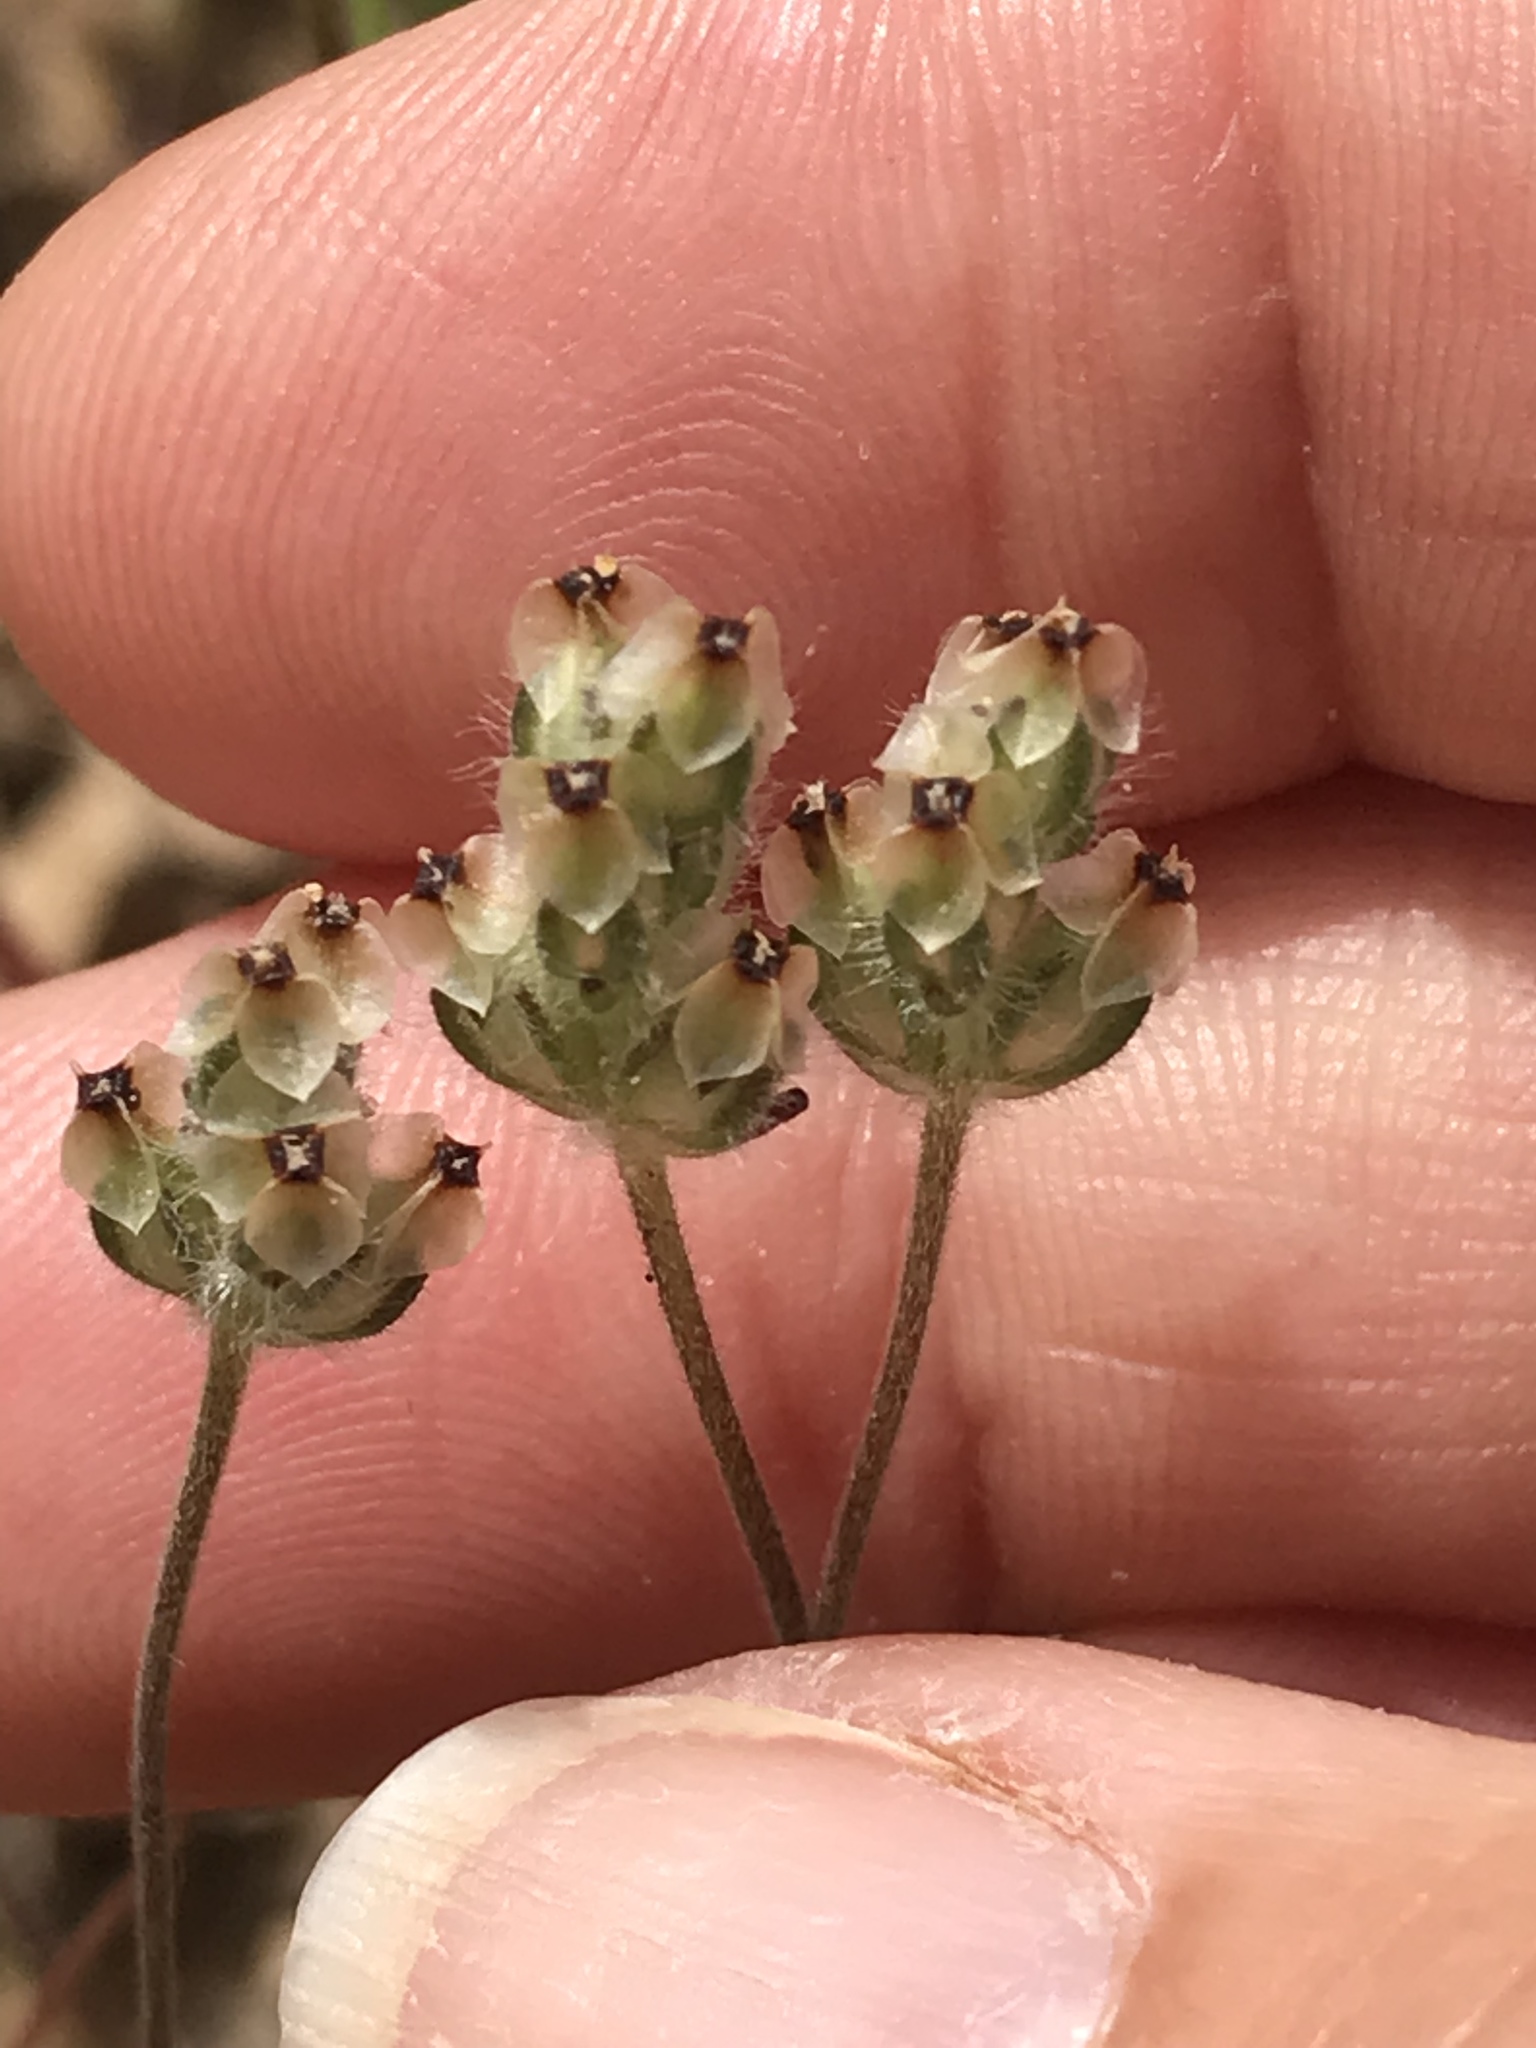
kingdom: Plantae
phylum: Tracheophyta
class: Magnoliopsida
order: Lamiales
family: Plantaginaceae
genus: Plantago
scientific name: Plantago erecta
